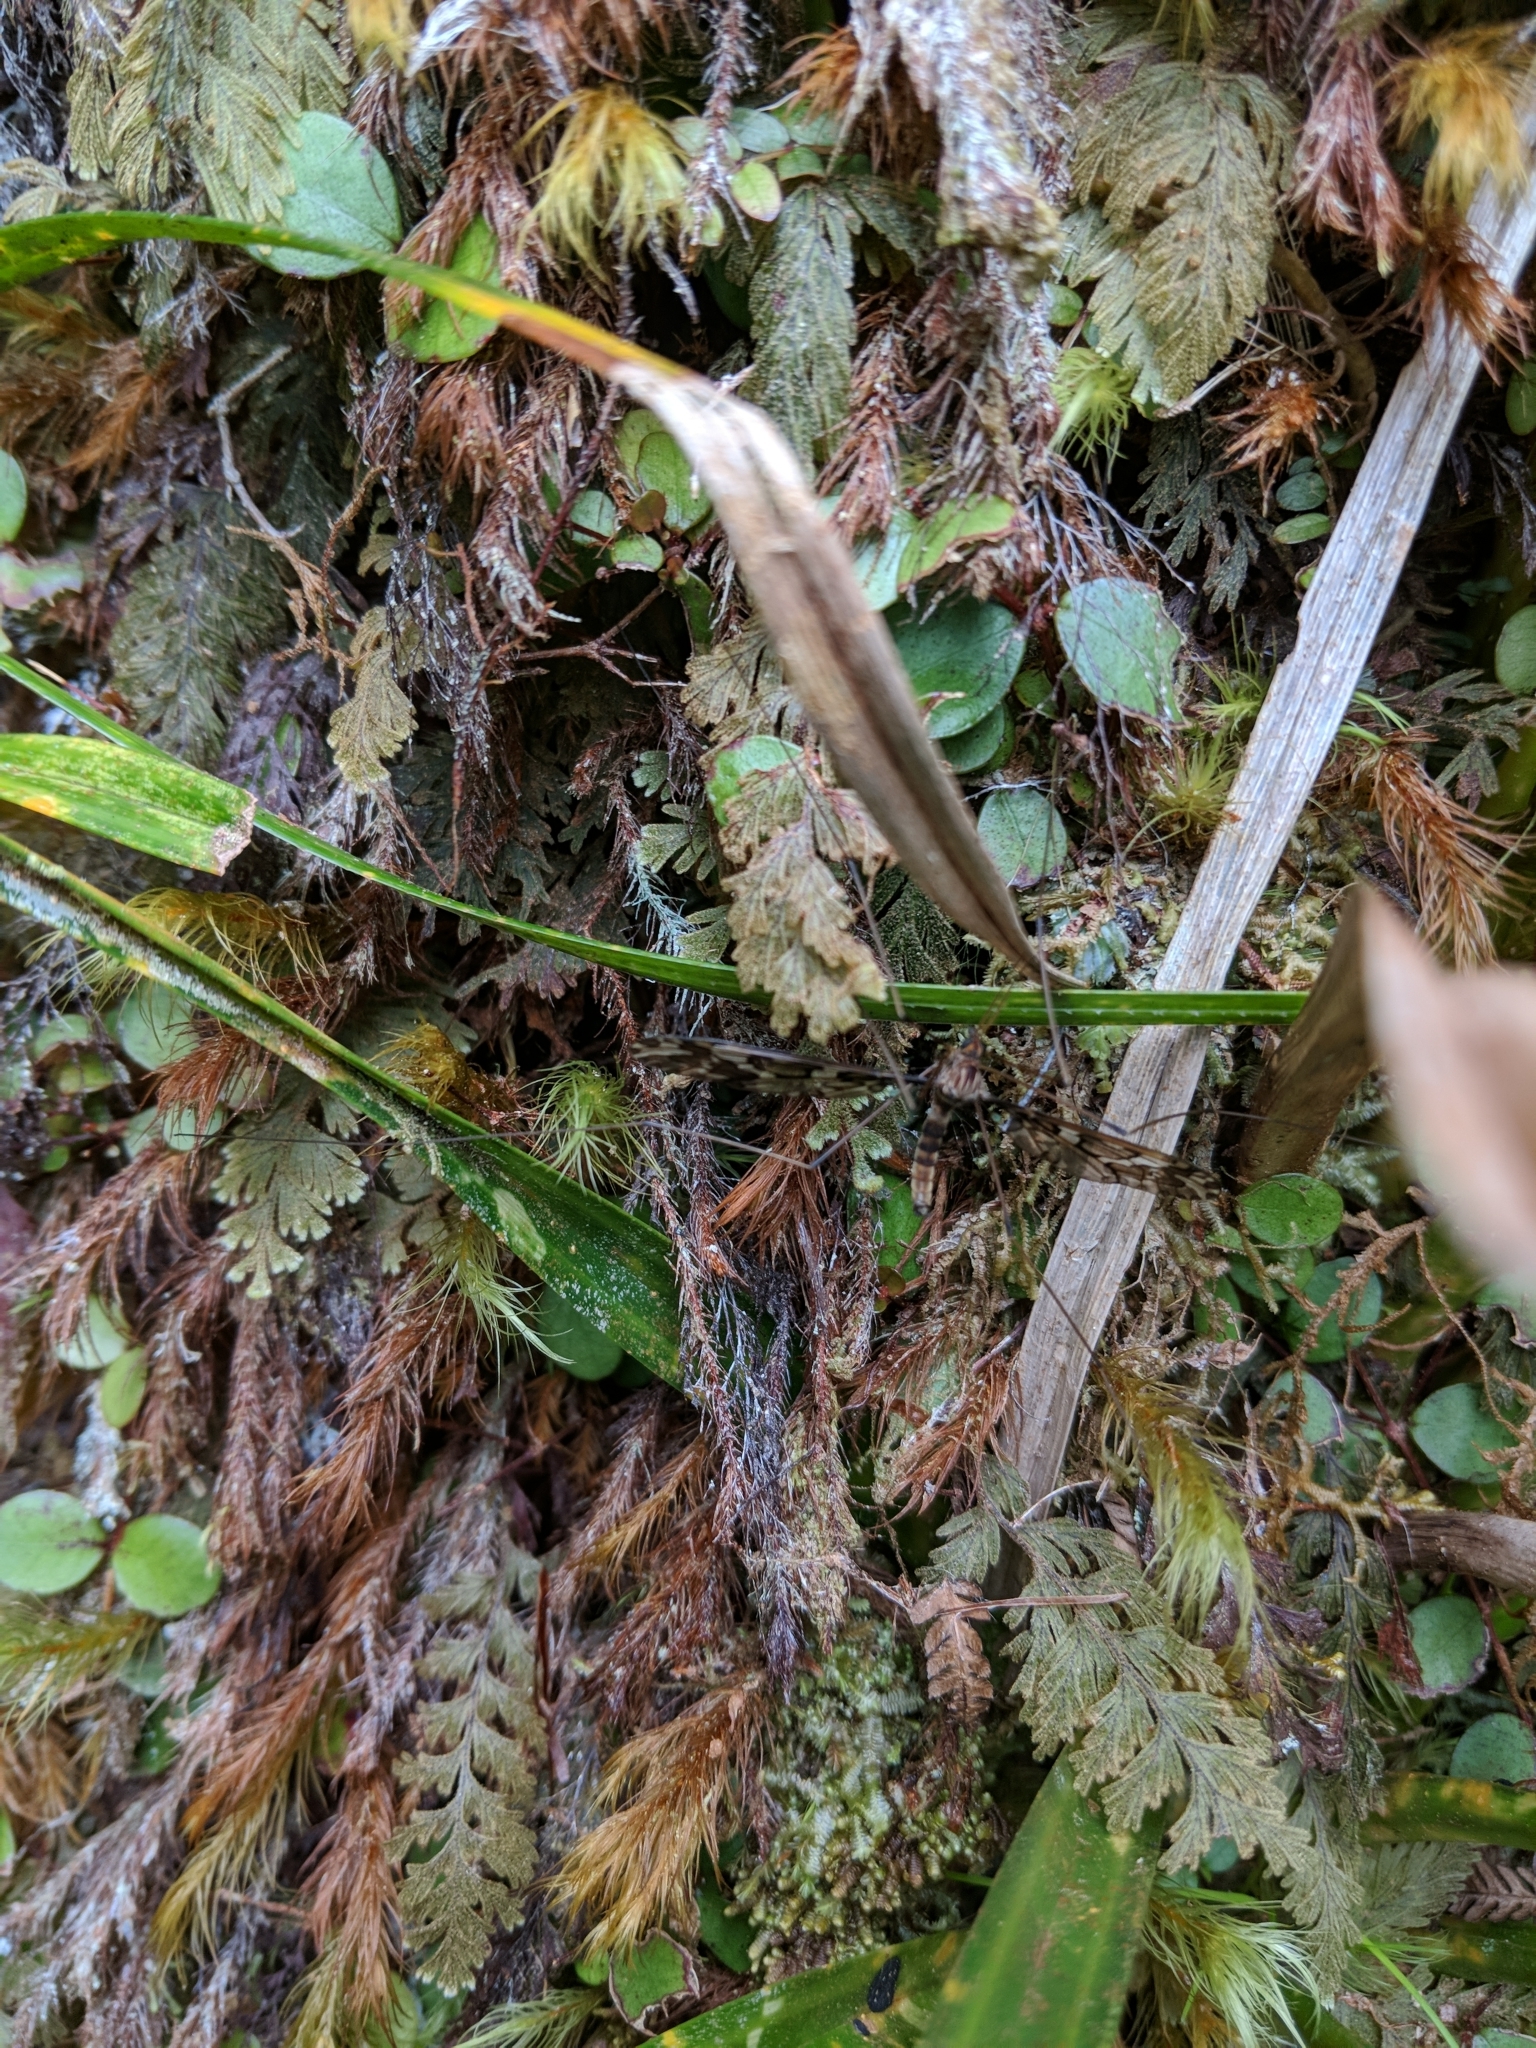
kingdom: Animalia
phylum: Arthropoda
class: Insecta
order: Diptera
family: Tipulidae
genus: Leptotarsus
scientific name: Leptotarsus binotatus
